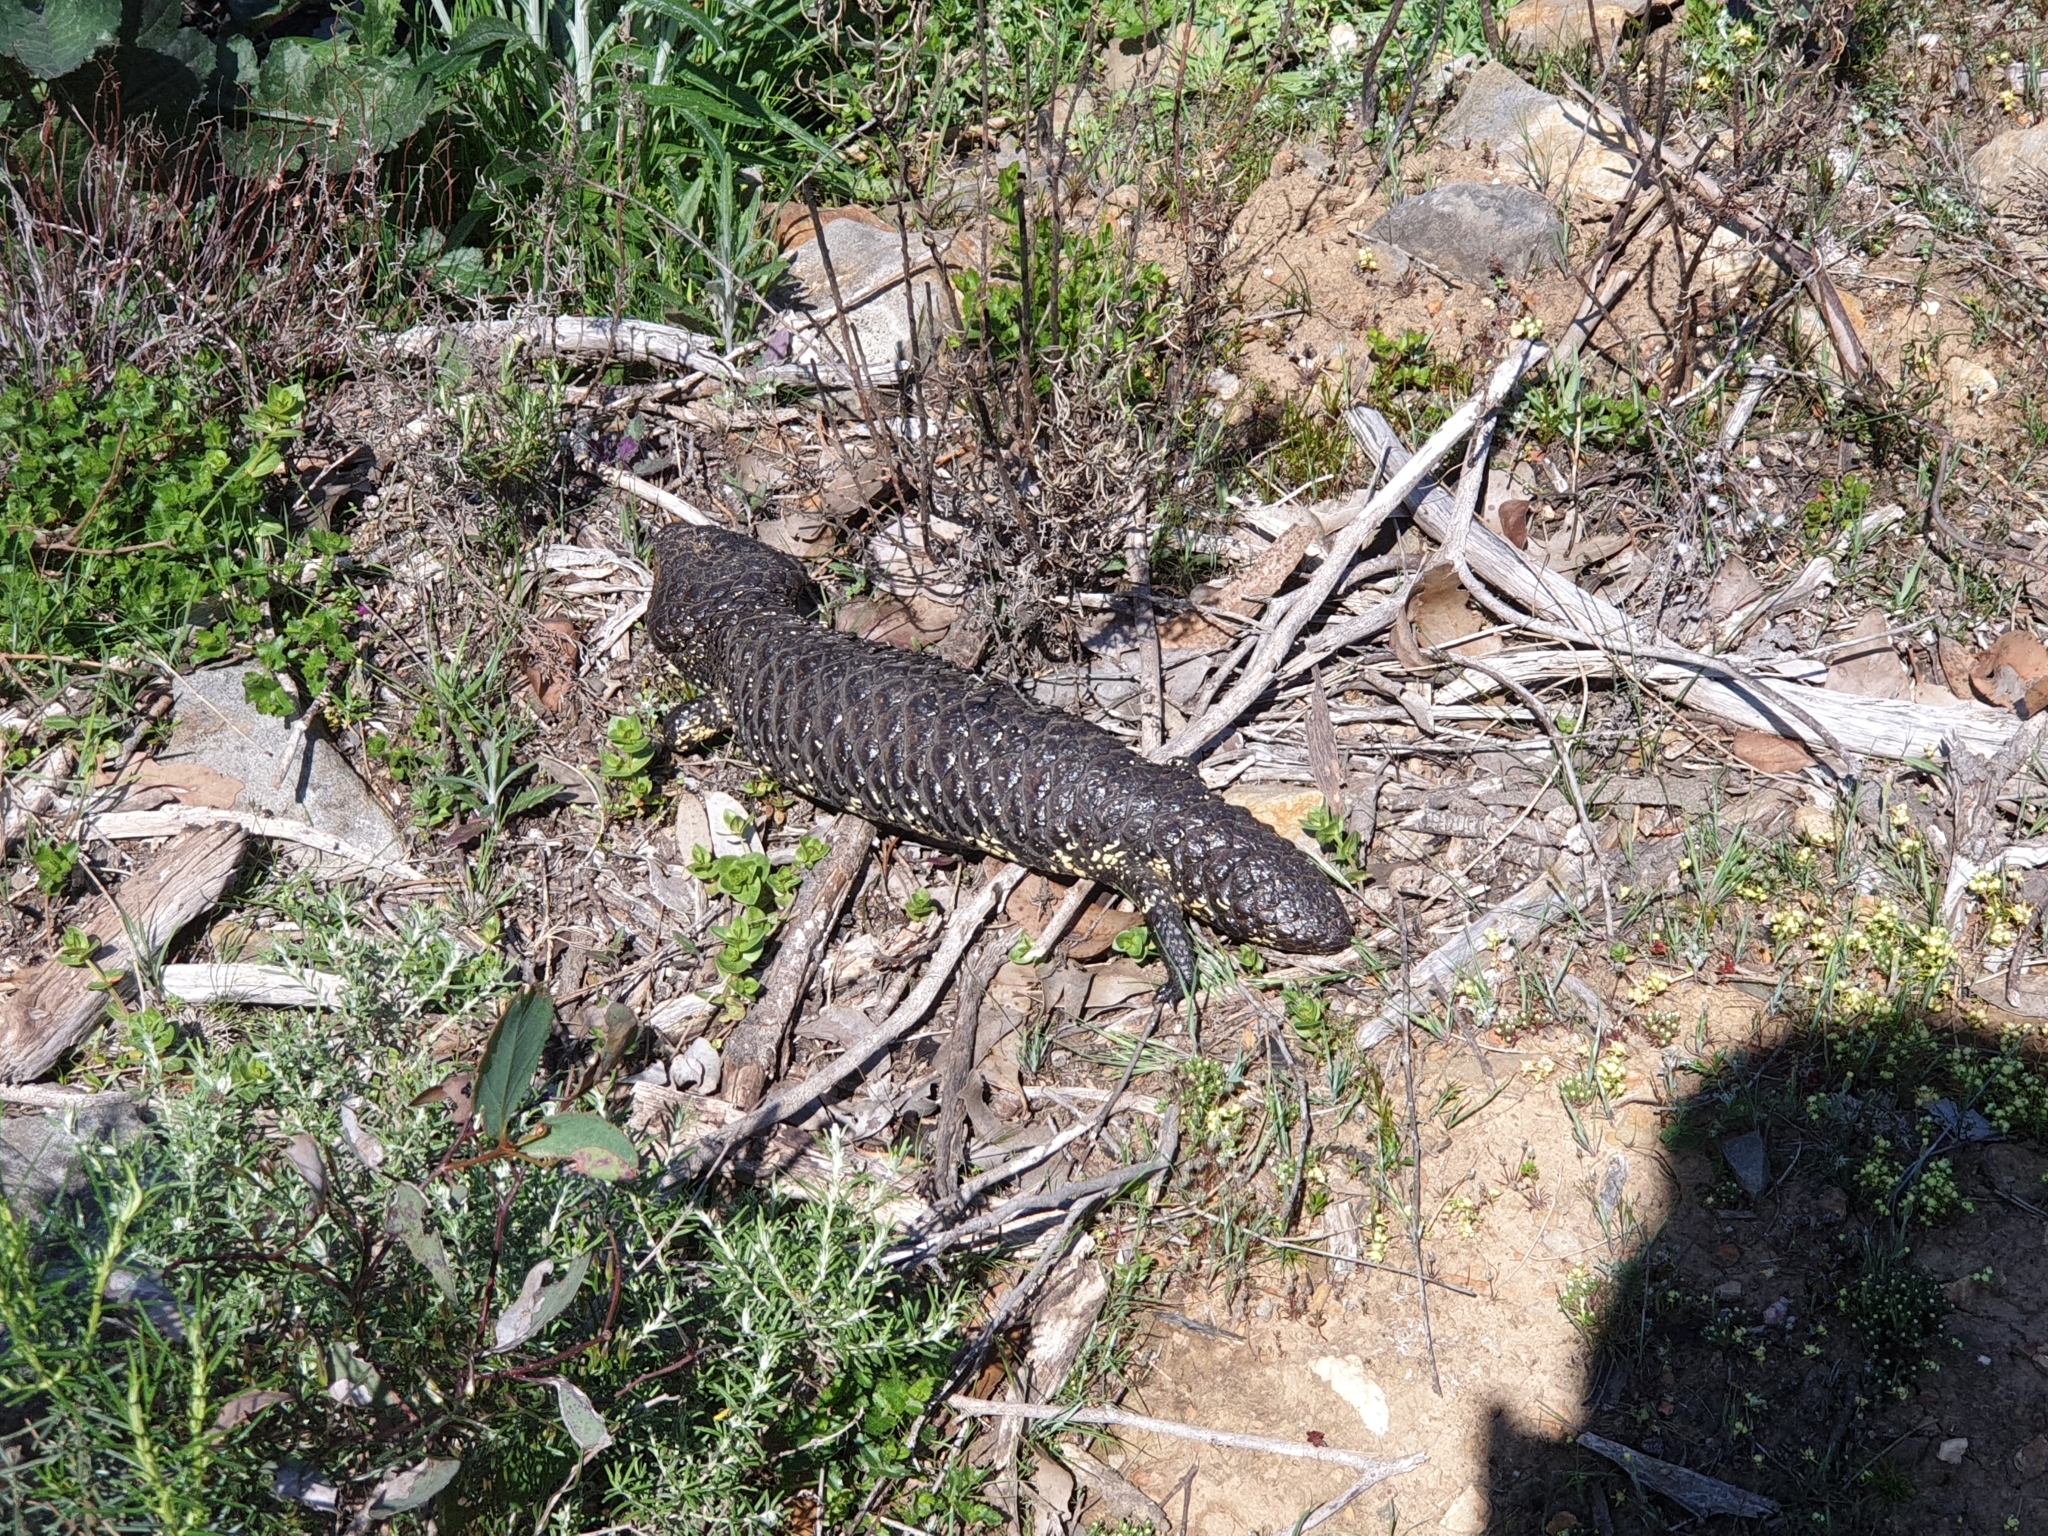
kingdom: Animalia
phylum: Chordata
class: Squamata
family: Scincidae
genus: Tiliqua
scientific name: Tiliqua rugosa
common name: Pinecone lizard
